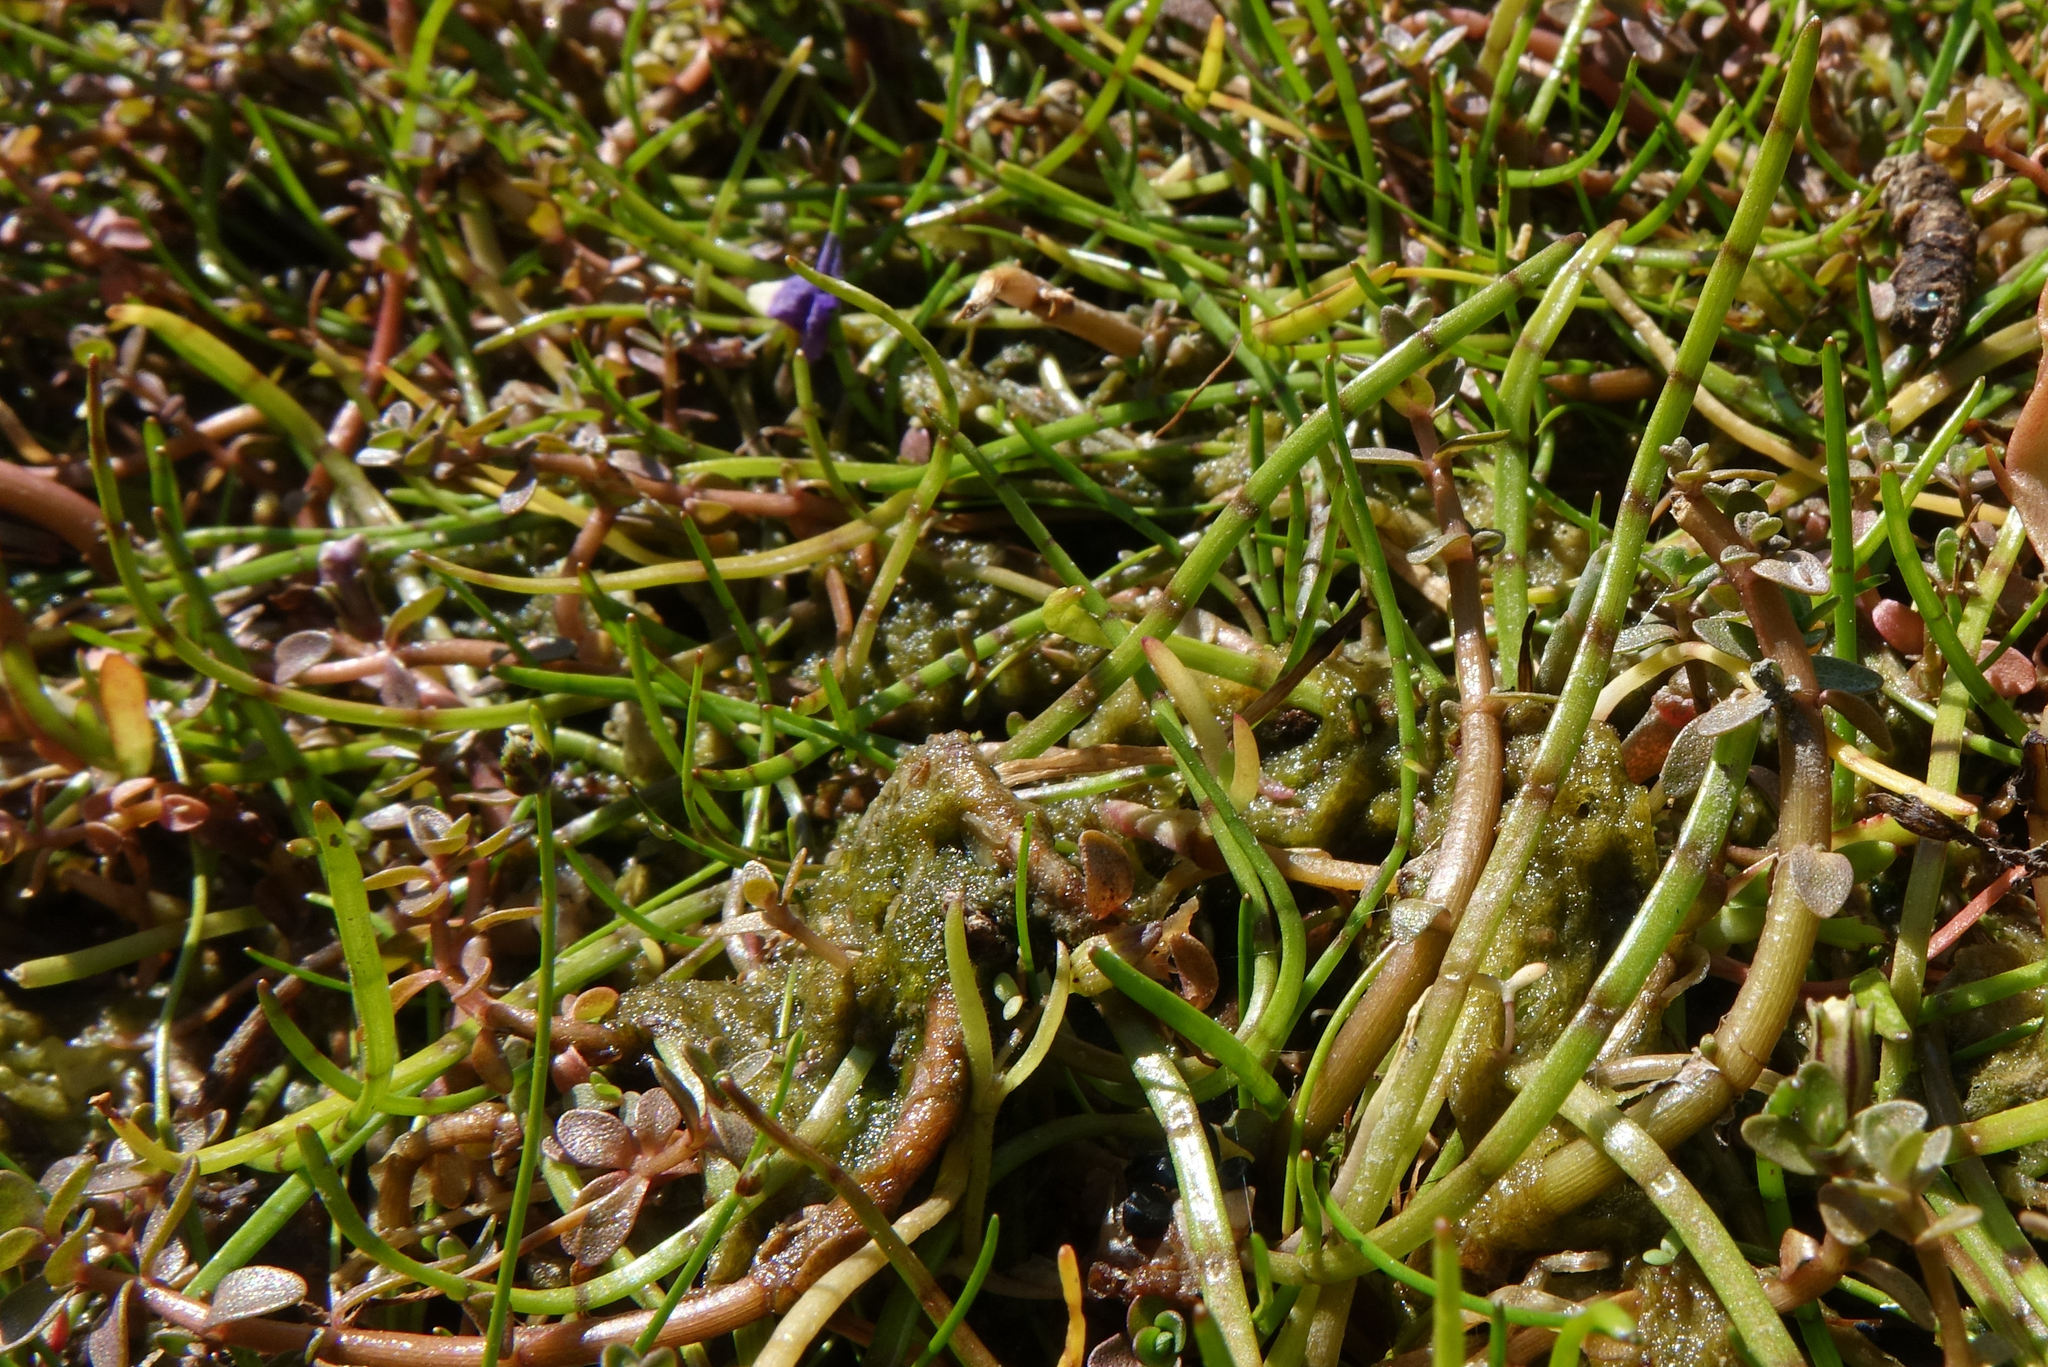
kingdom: Plantae
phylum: Tracheophyta
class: Magnoliopsida
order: Apiales
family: Apiaceae
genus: Lilaeopsis
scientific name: Lilaeopsis novae-zelandiae
